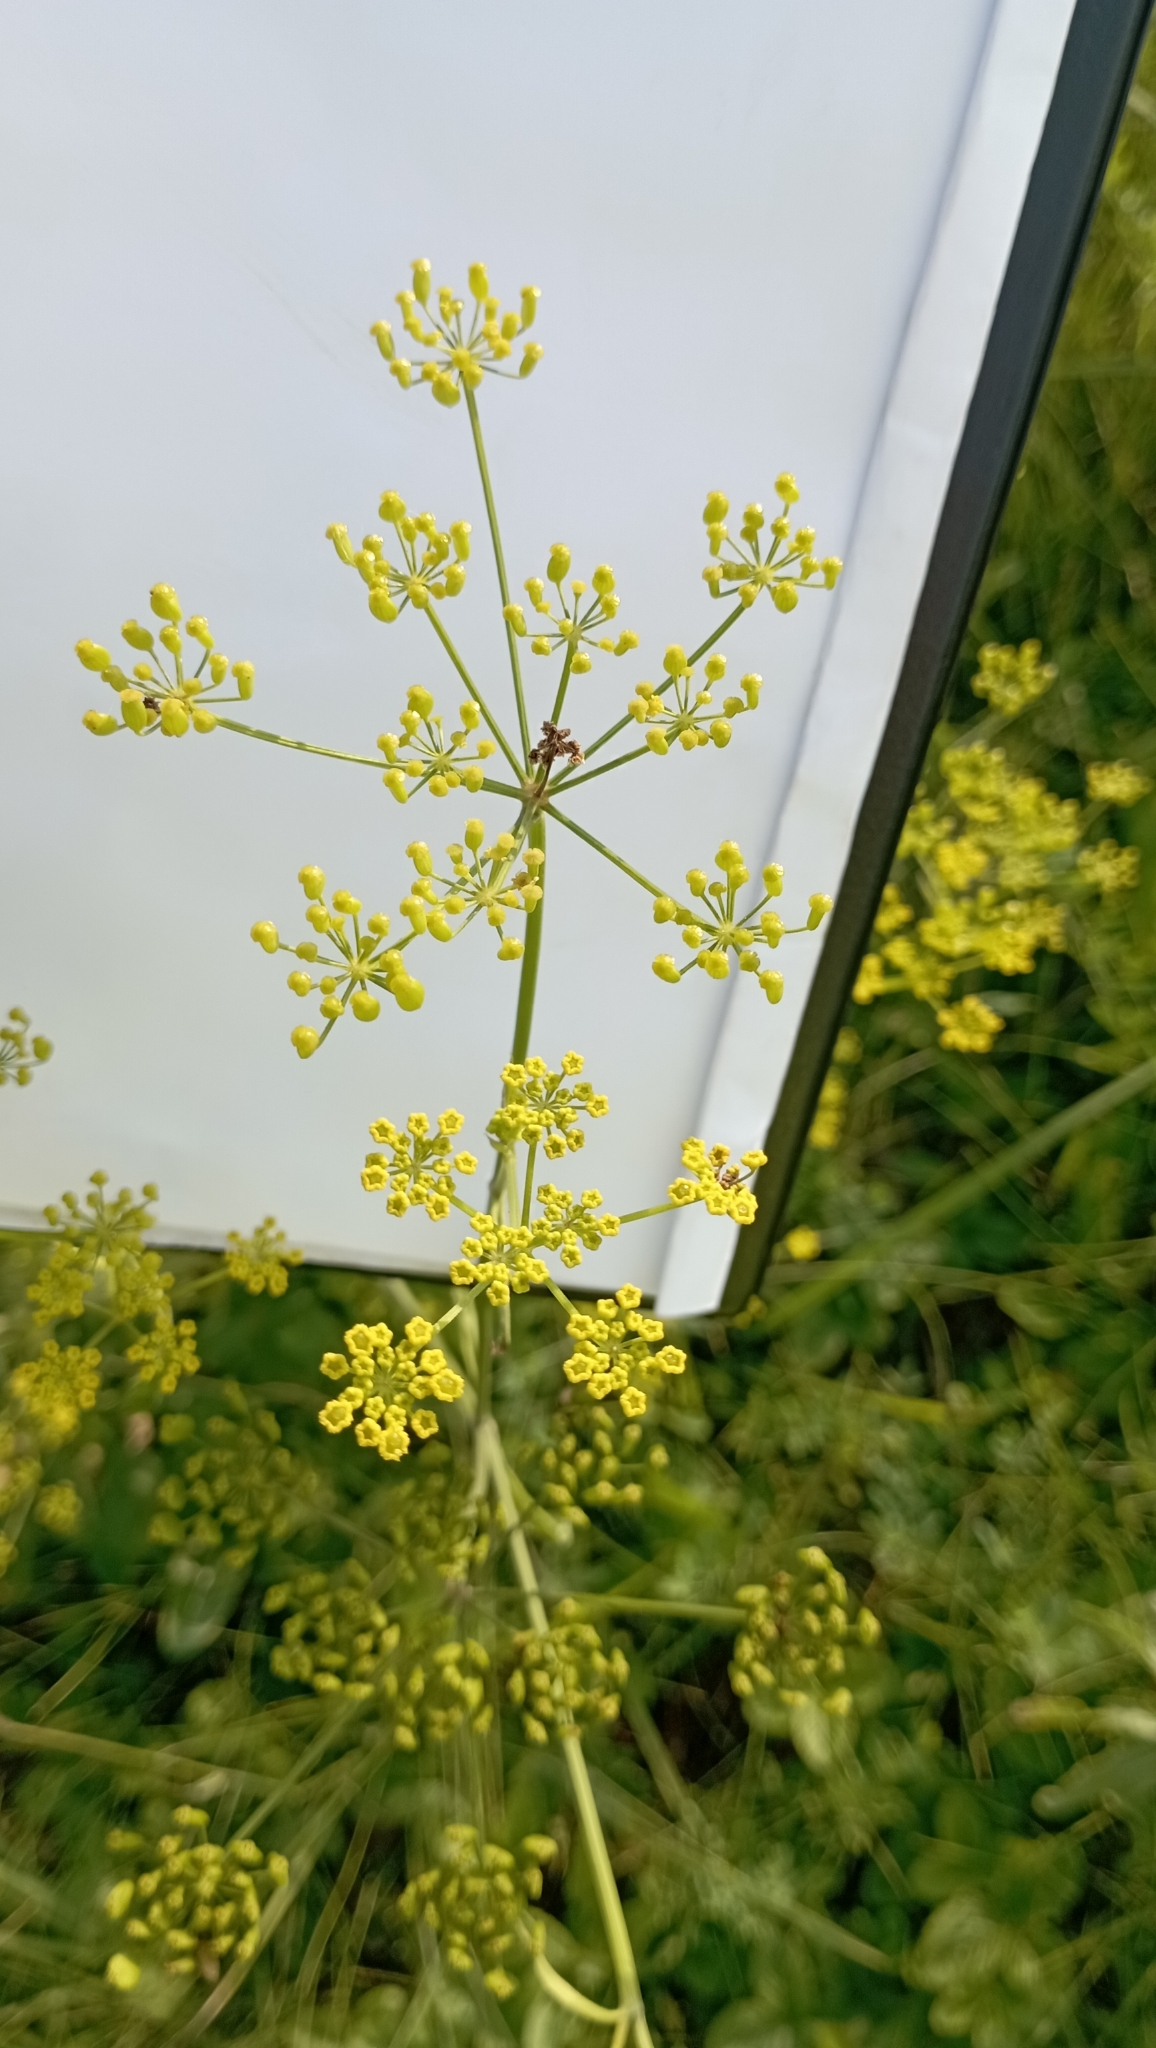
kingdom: Plantae
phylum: Tracheophyta
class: Magnoliopsida
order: Apiales
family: Apiaceae
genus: Pastinaca
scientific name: Pastinaca sativa
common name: Wild parsnip
